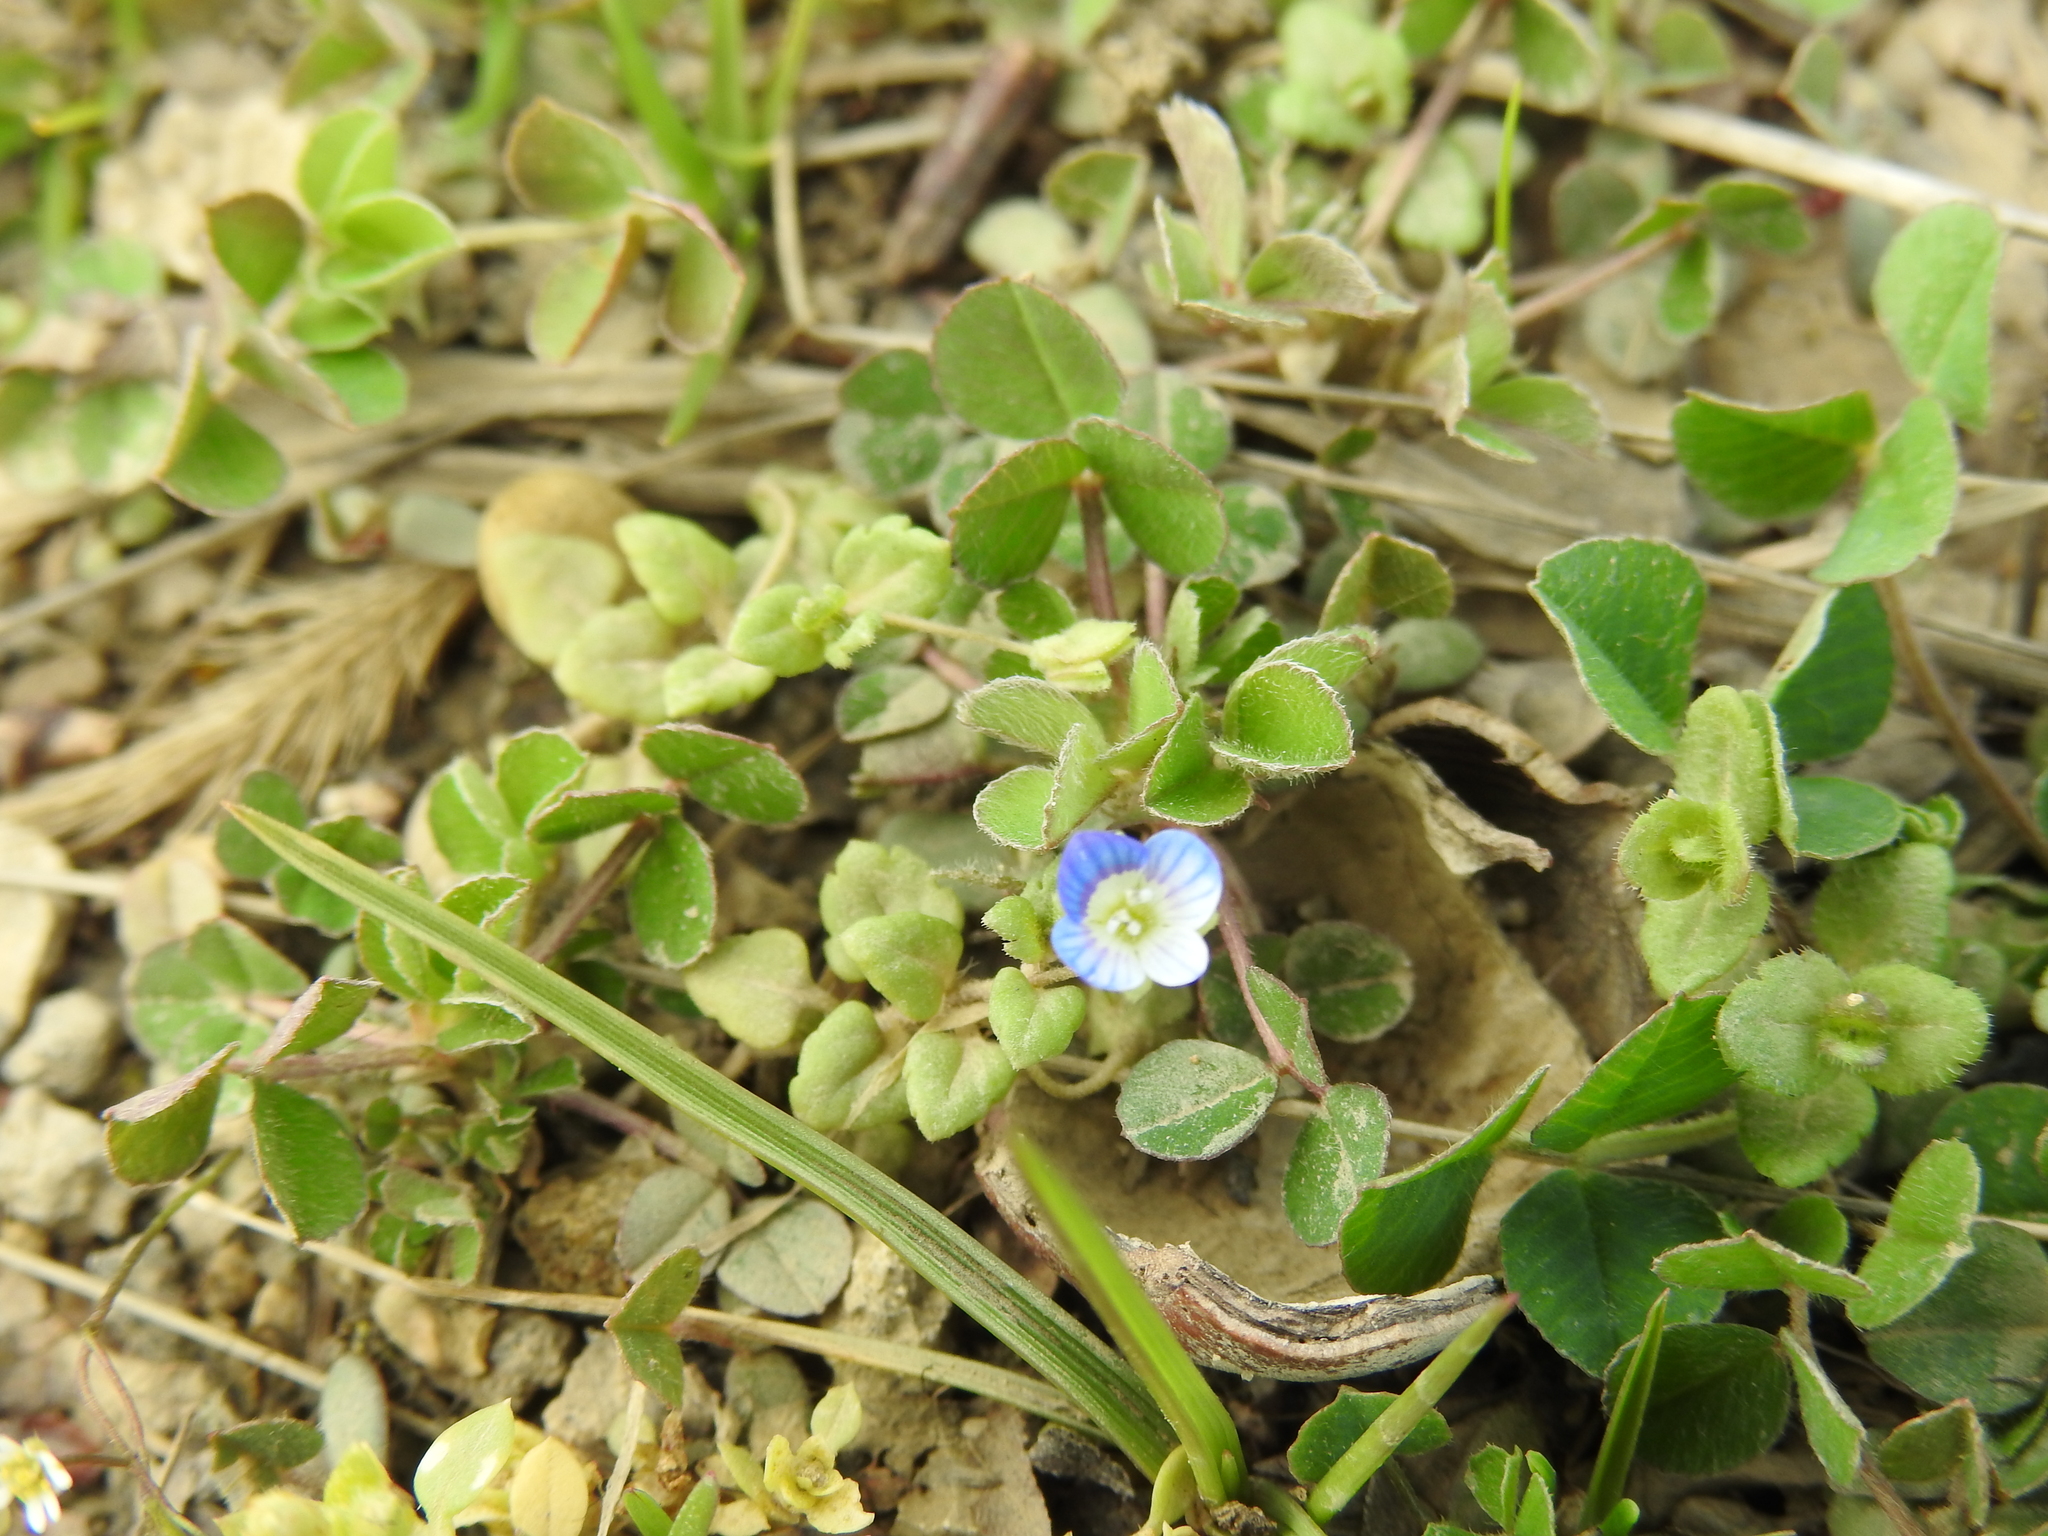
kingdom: Plantae
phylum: Tracheophyta
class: Magnoliopsida
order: Lamiales
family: Plantaginaceae
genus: Veronica
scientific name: Veronica polita
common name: Grey field-speedwell
